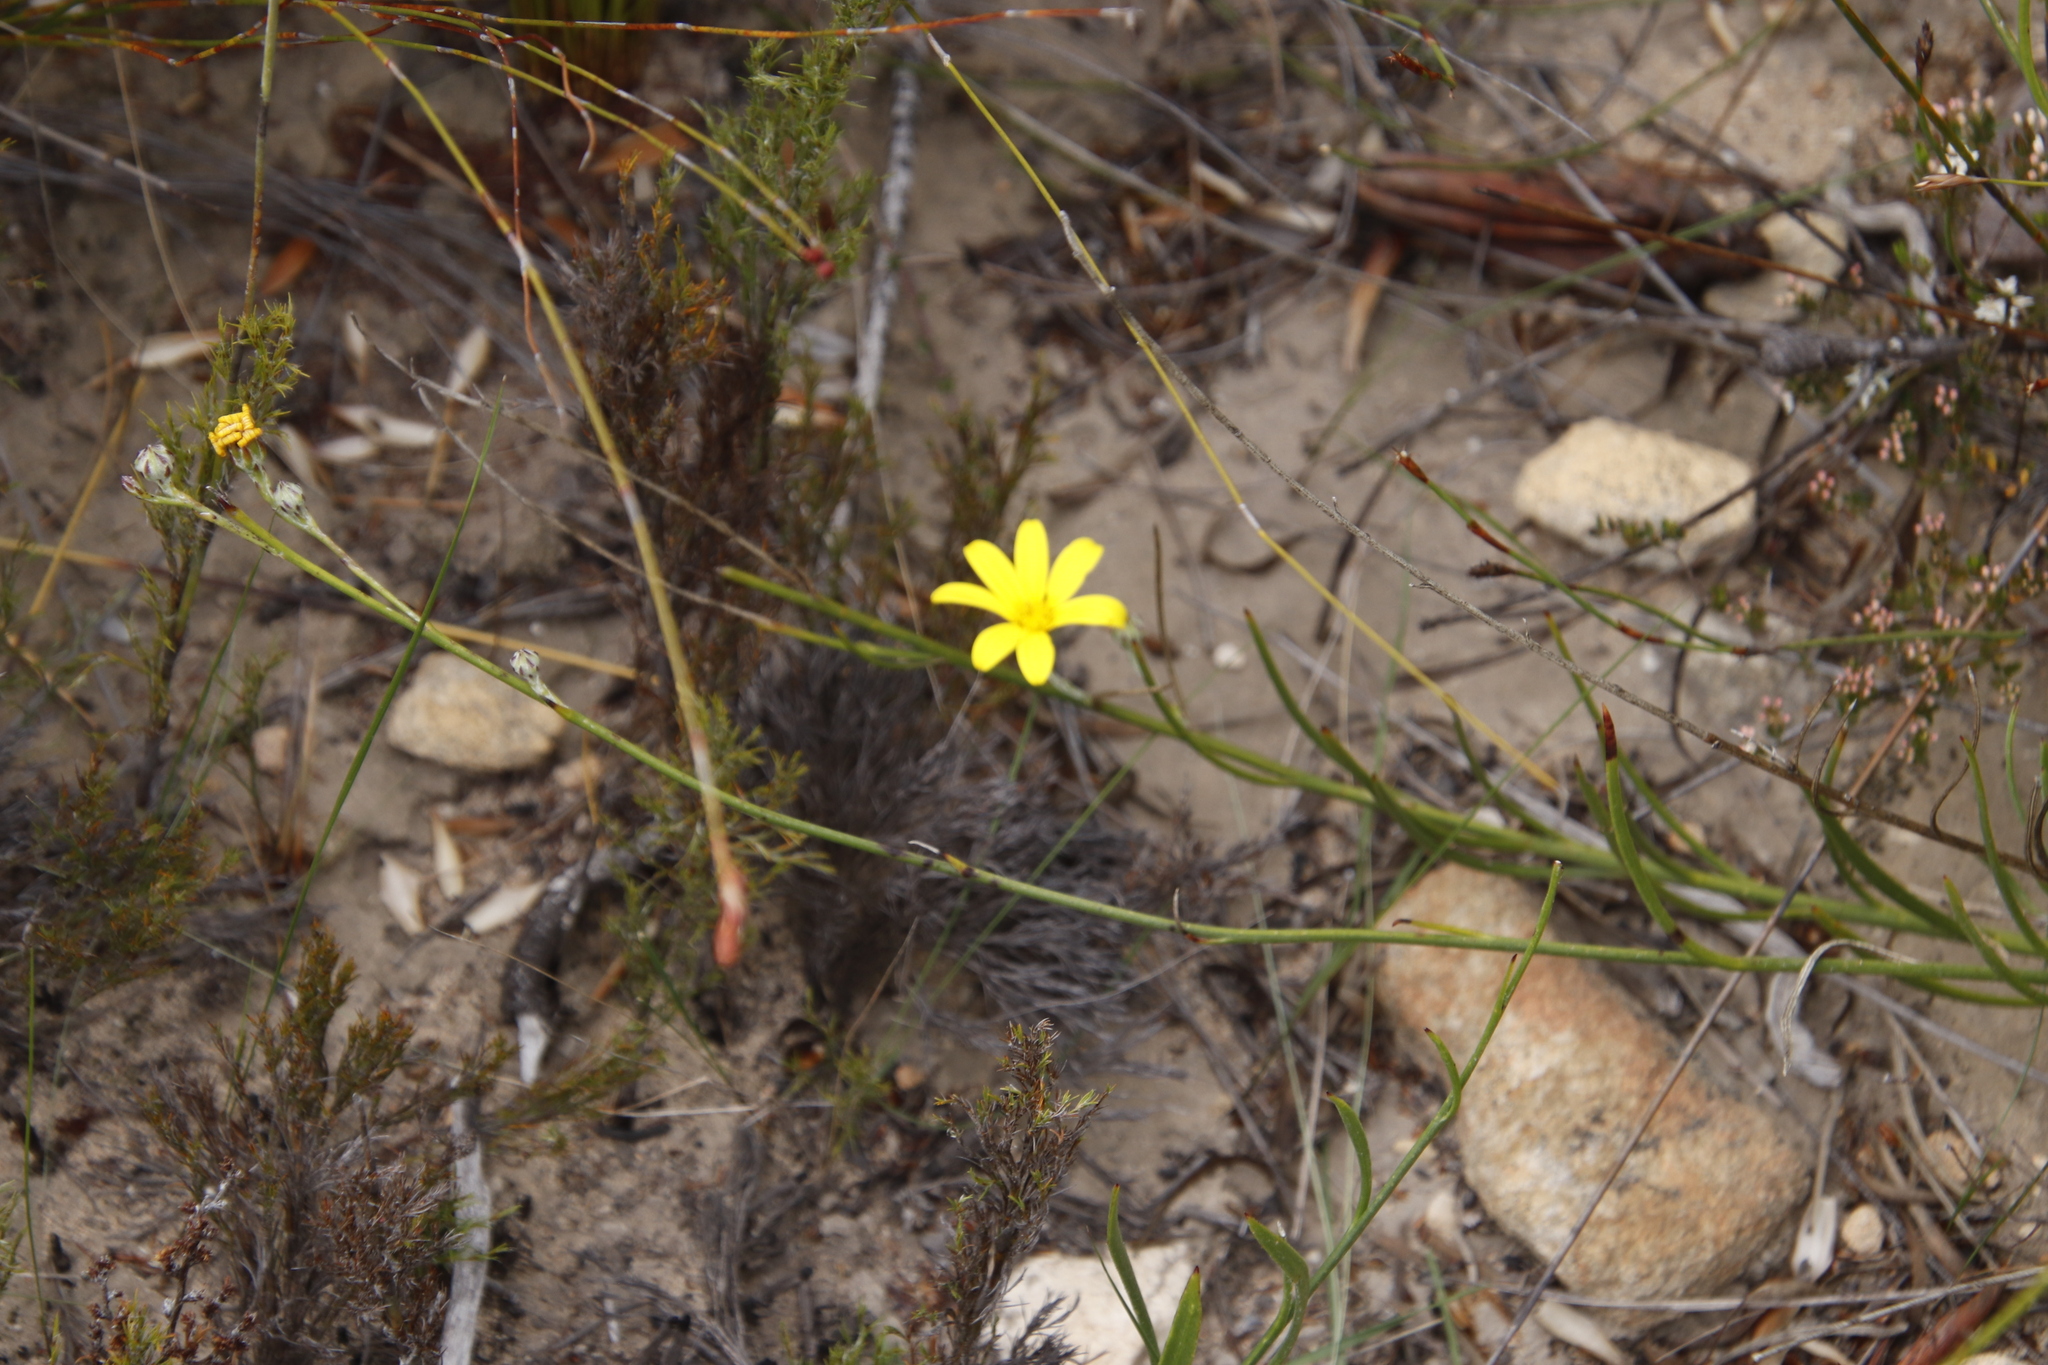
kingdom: Plantae
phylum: Tracheophyta
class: Magnoliopsida
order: Asterales
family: Asteraceae
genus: Osteospermum
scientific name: Osteospermum asperulum
